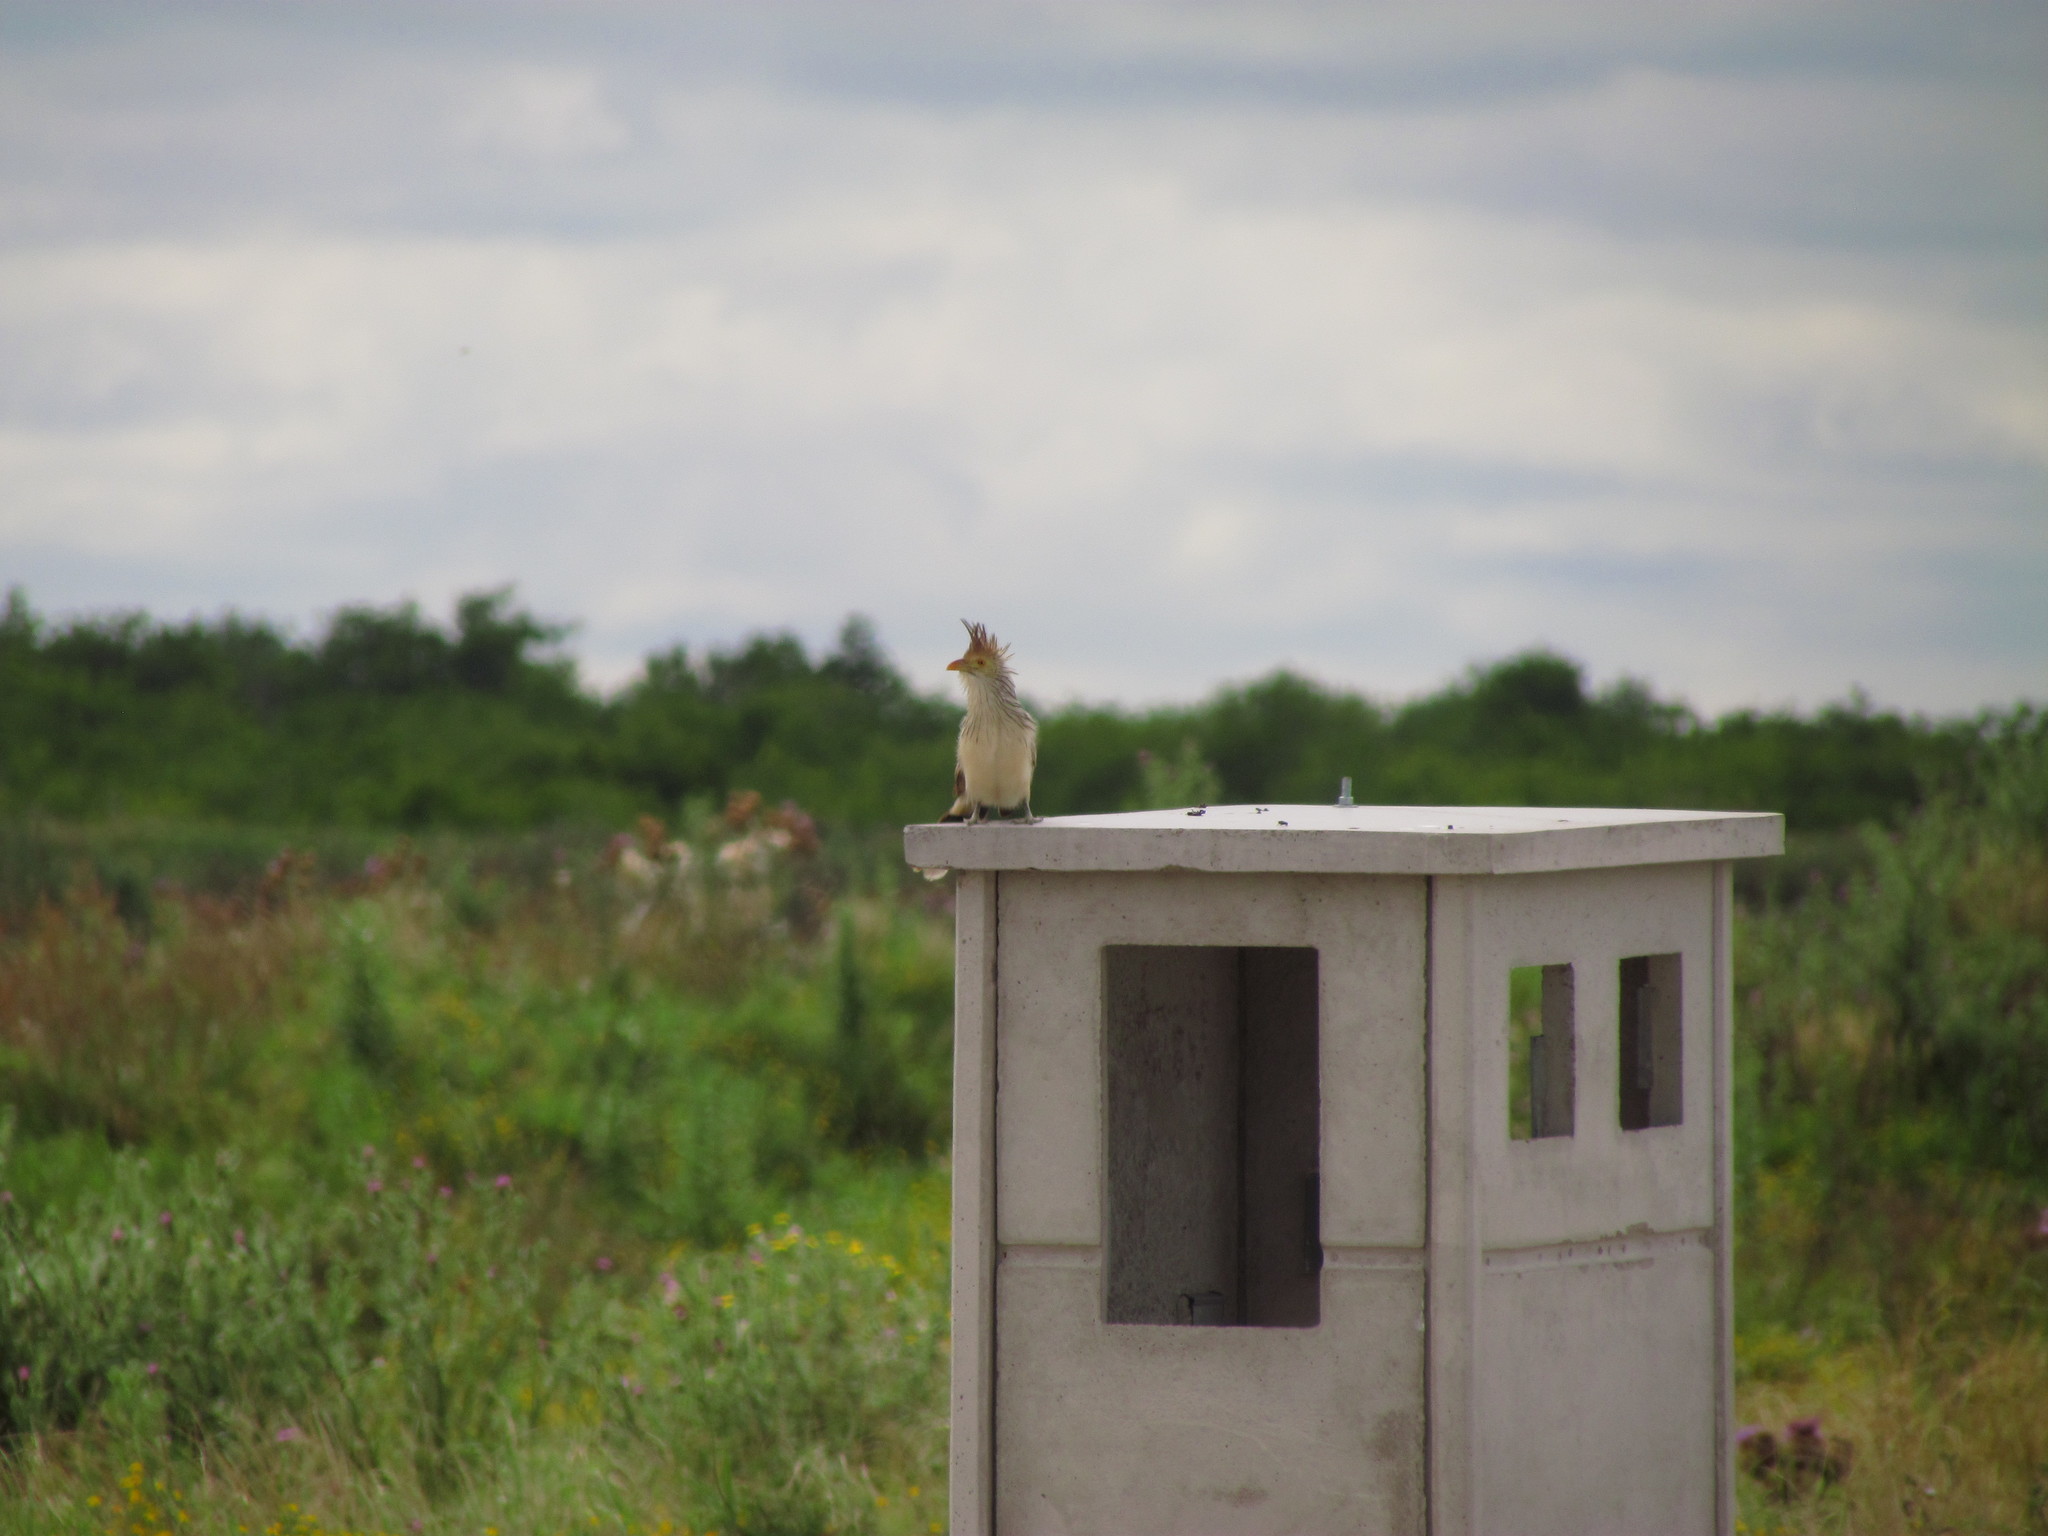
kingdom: Animalia
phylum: Chordata
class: Aves
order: Cuculiformes
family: Cuculidae
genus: Guira
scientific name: Guira guira
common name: Guira cuckoo
